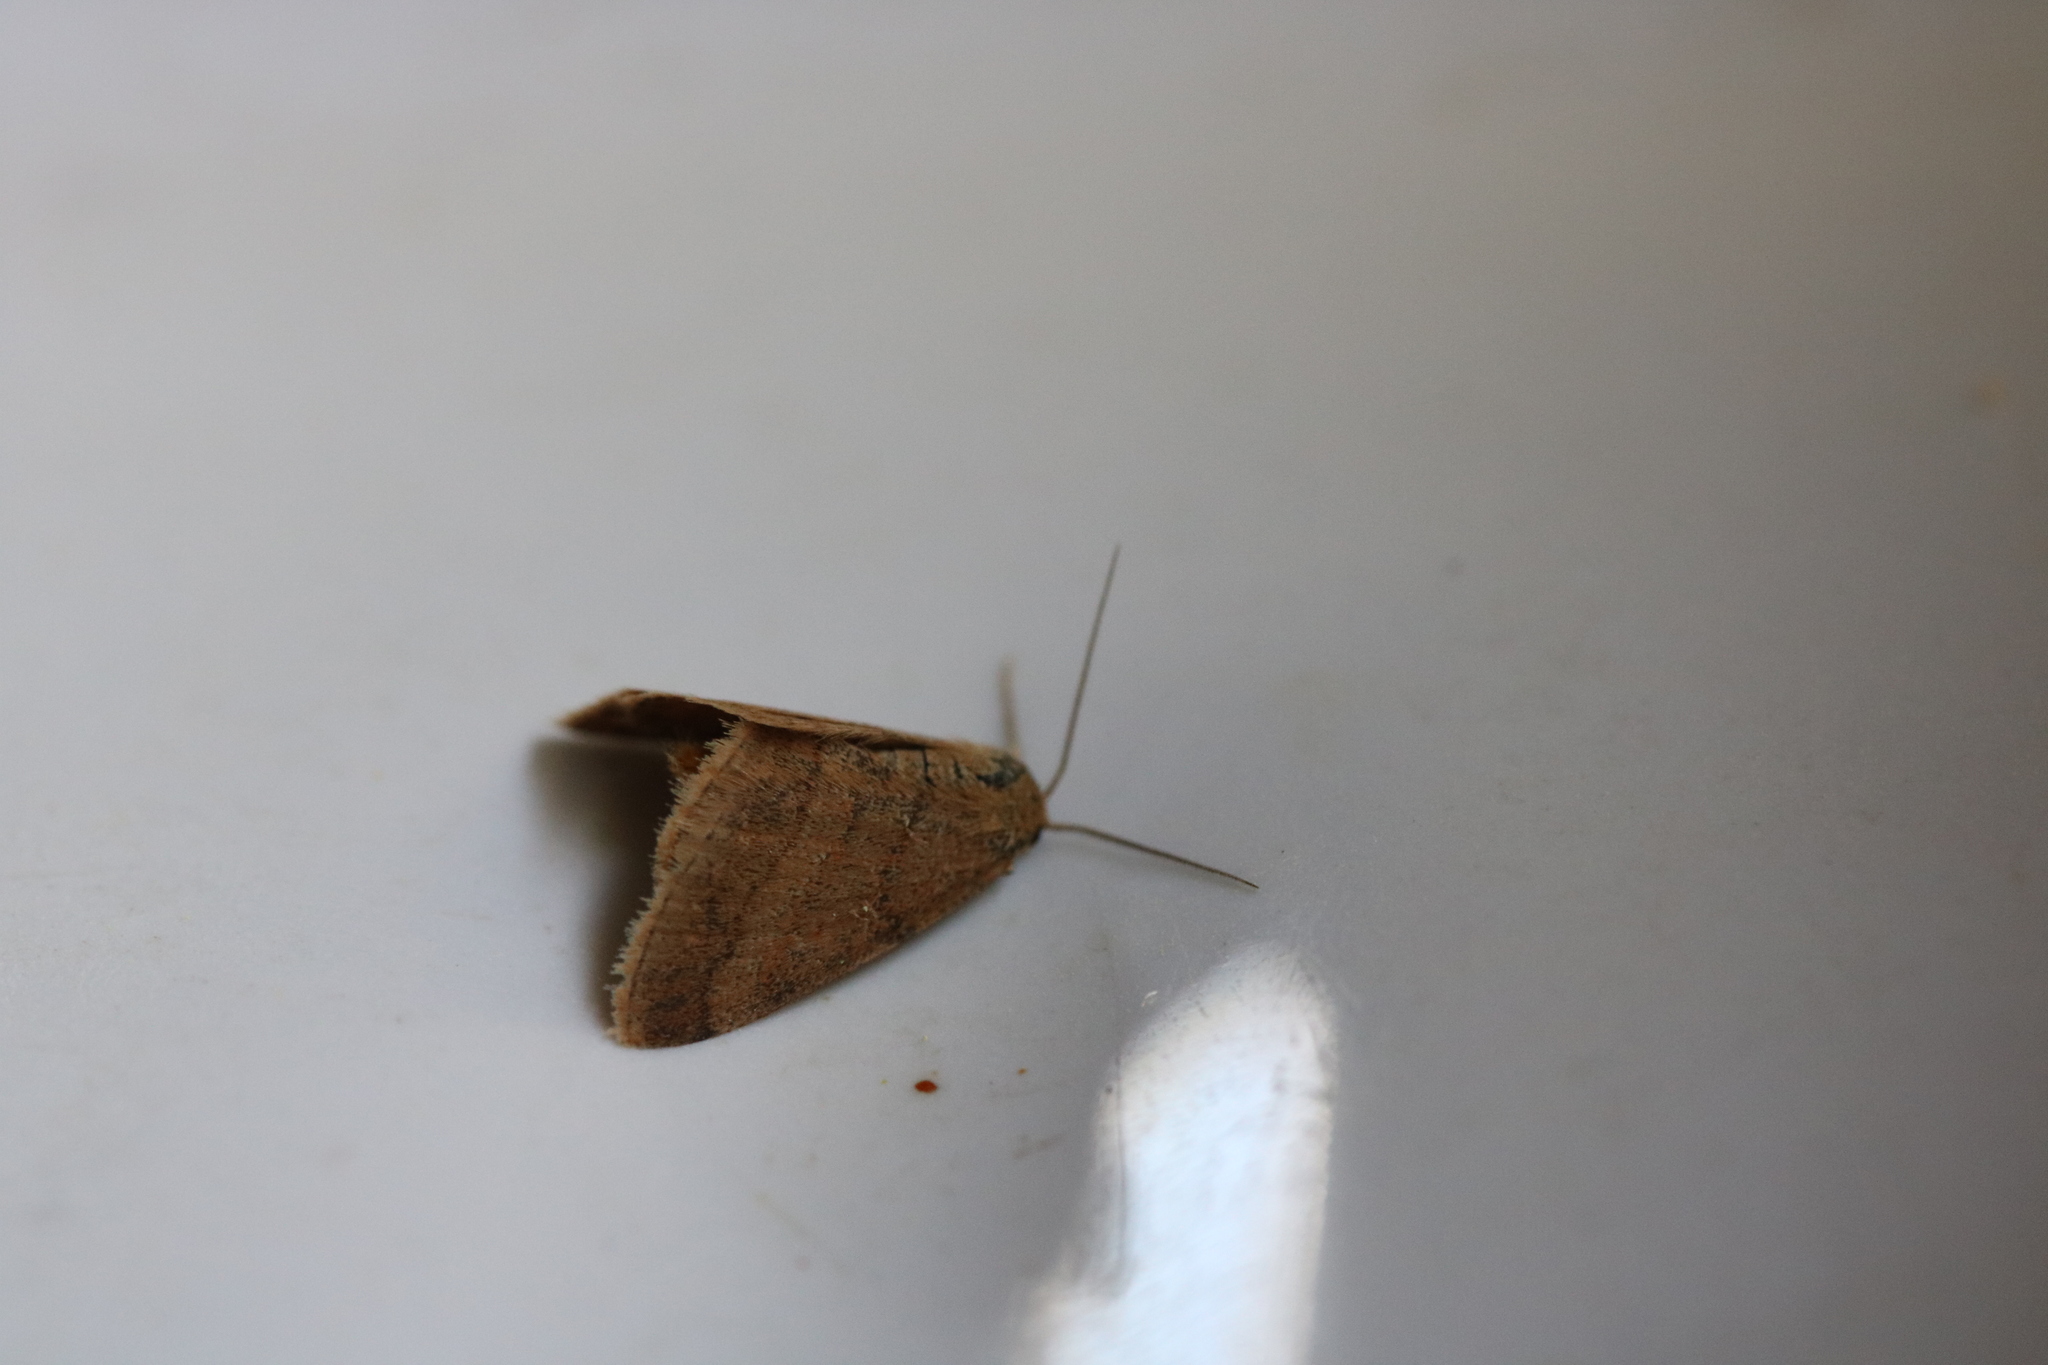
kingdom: Animalia
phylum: Arthropoda
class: Insecta
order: Lepidoptera
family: Geometridae
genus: Scopula
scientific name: Scopula rubiginata
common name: Tawny wave
